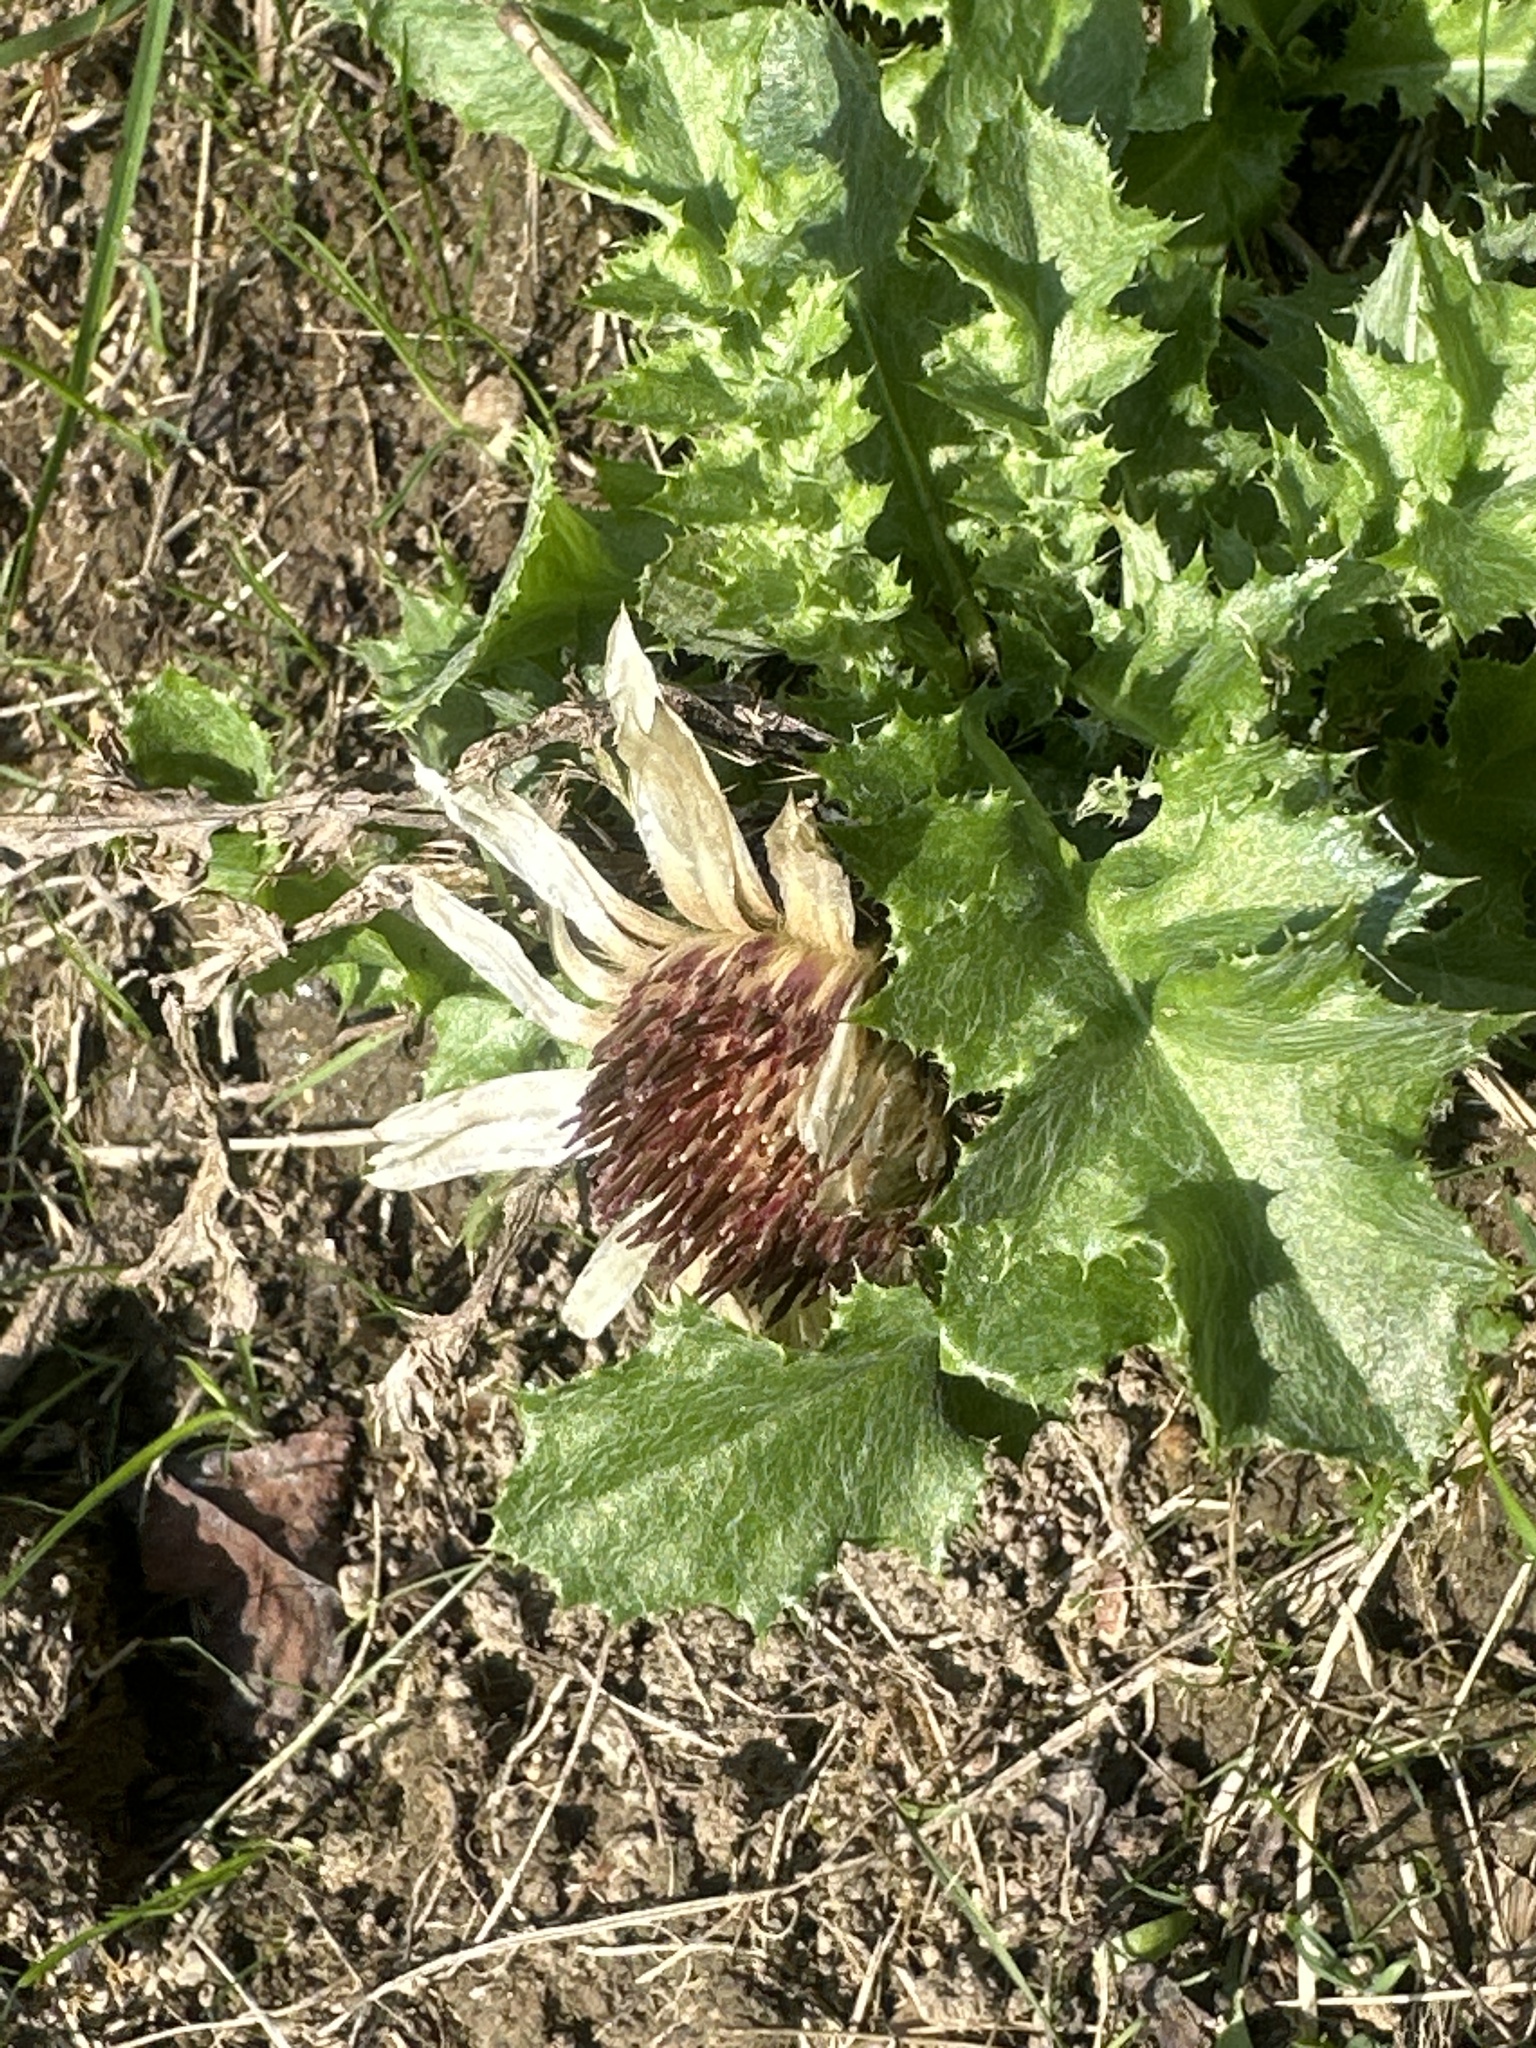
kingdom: Plantae
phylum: Tracheophyta
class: Magnoliopsida
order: Asterales
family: Asteraceae
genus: Carlina
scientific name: Carlina acaulis
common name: Stemless carline thistle
